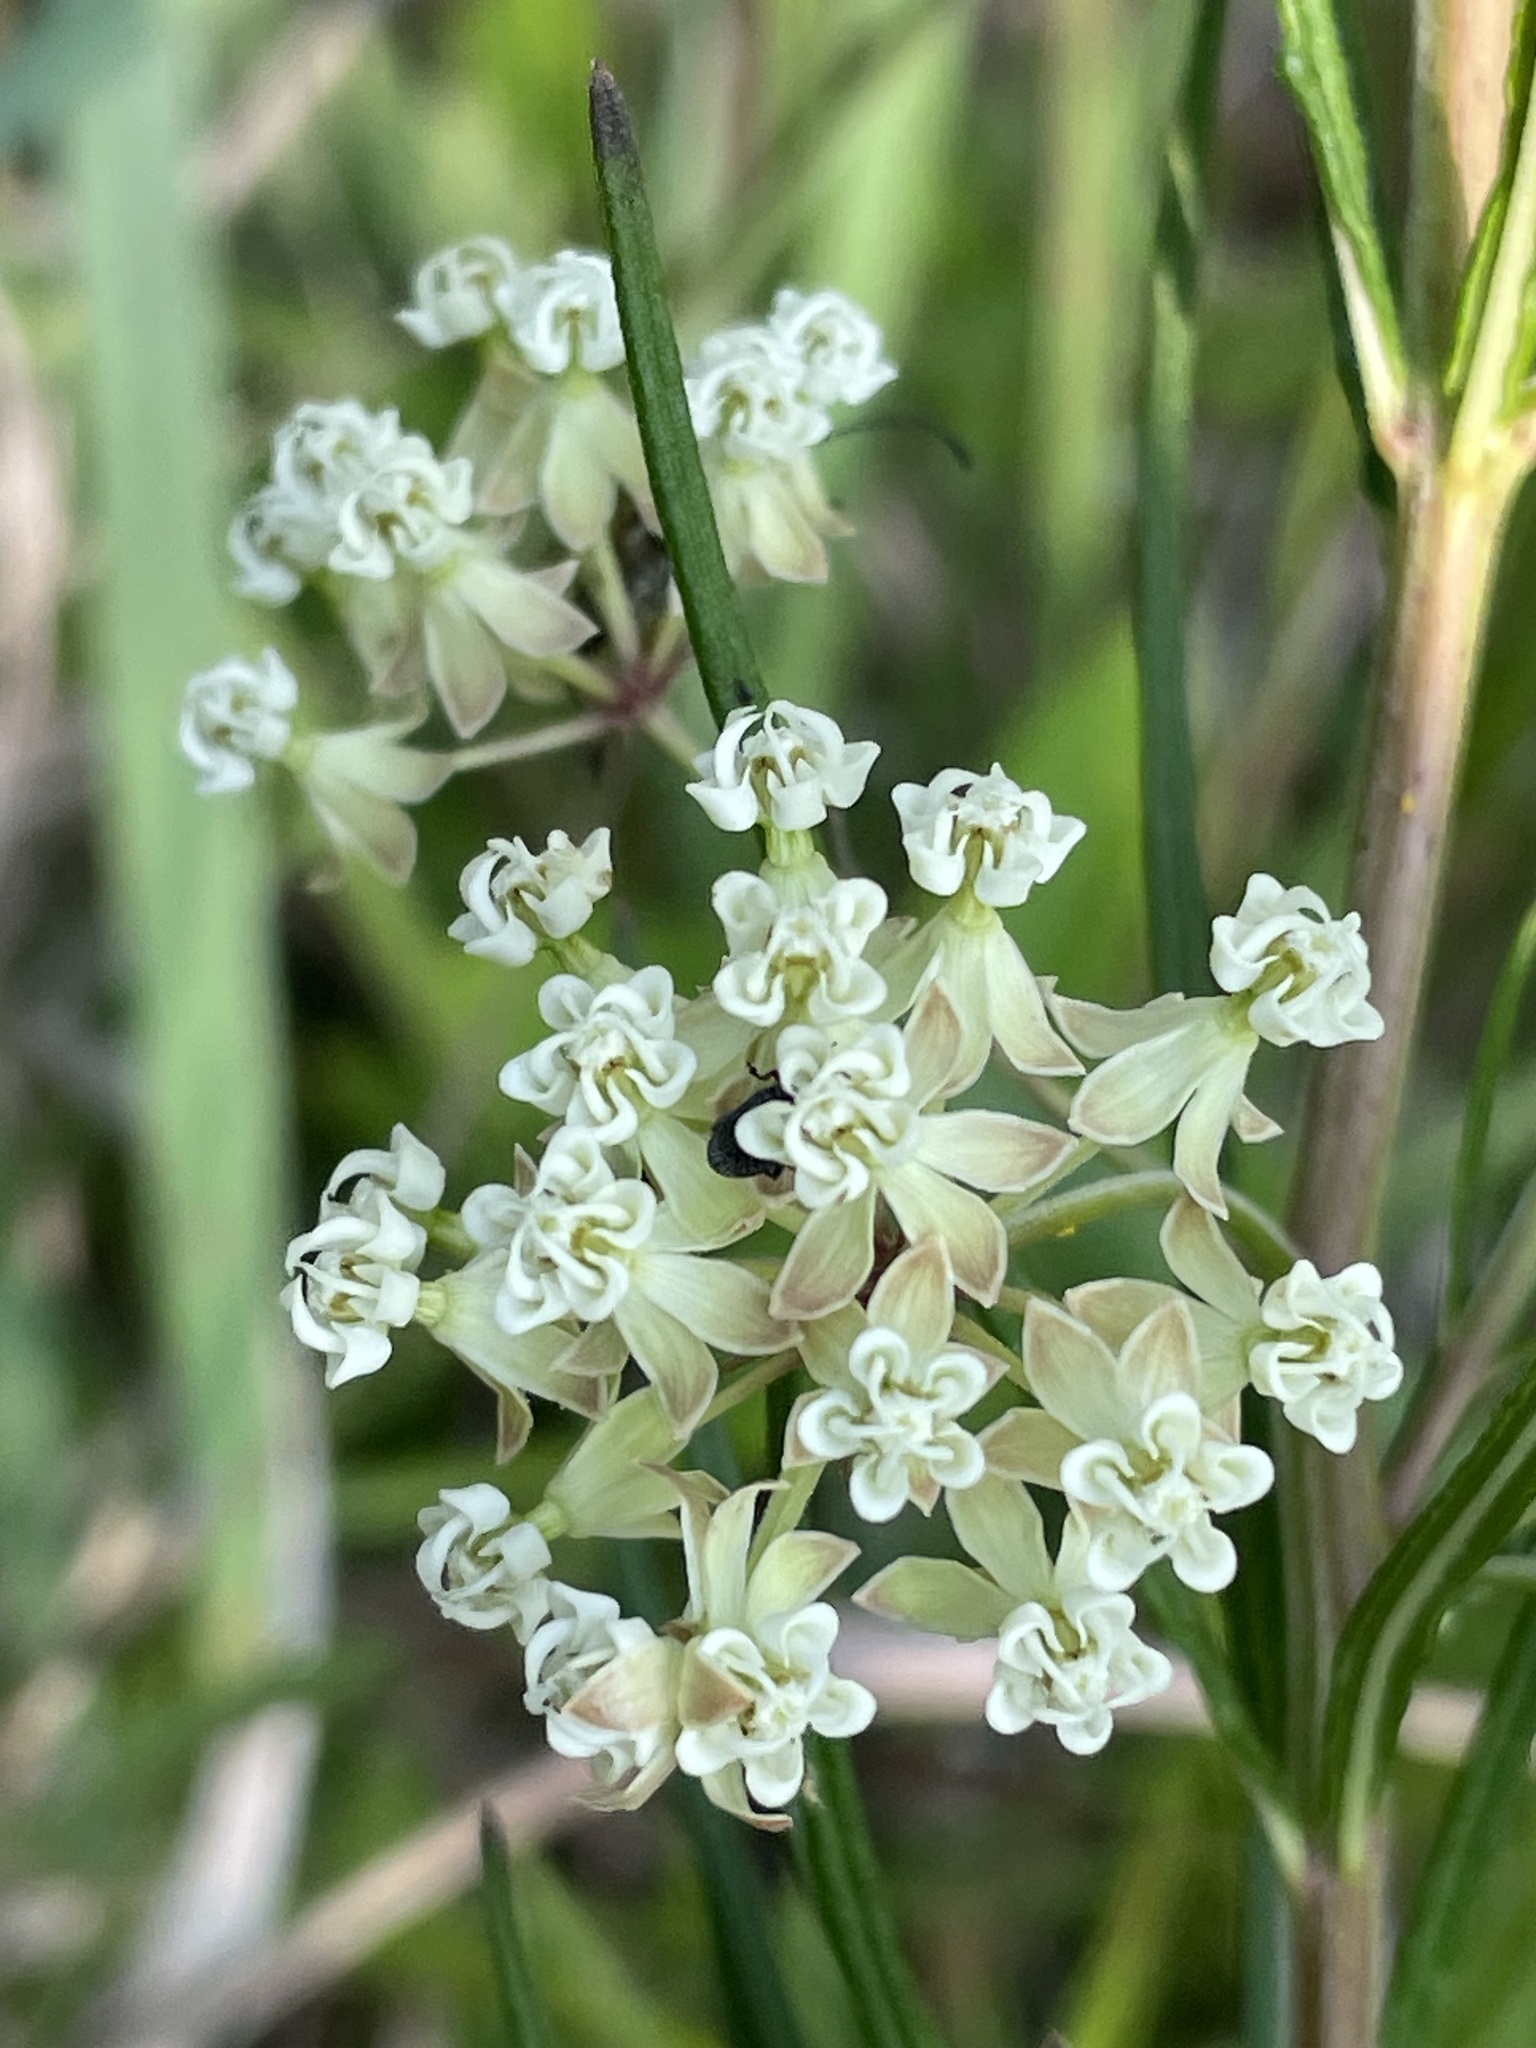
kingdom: Plantae
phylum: Tracheophyta
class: Magnoliopsida
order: Gentianales
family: Apocynaceae
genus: Asclepias
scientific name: Asclepias verticillata
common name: Eastern whorled milkweed
